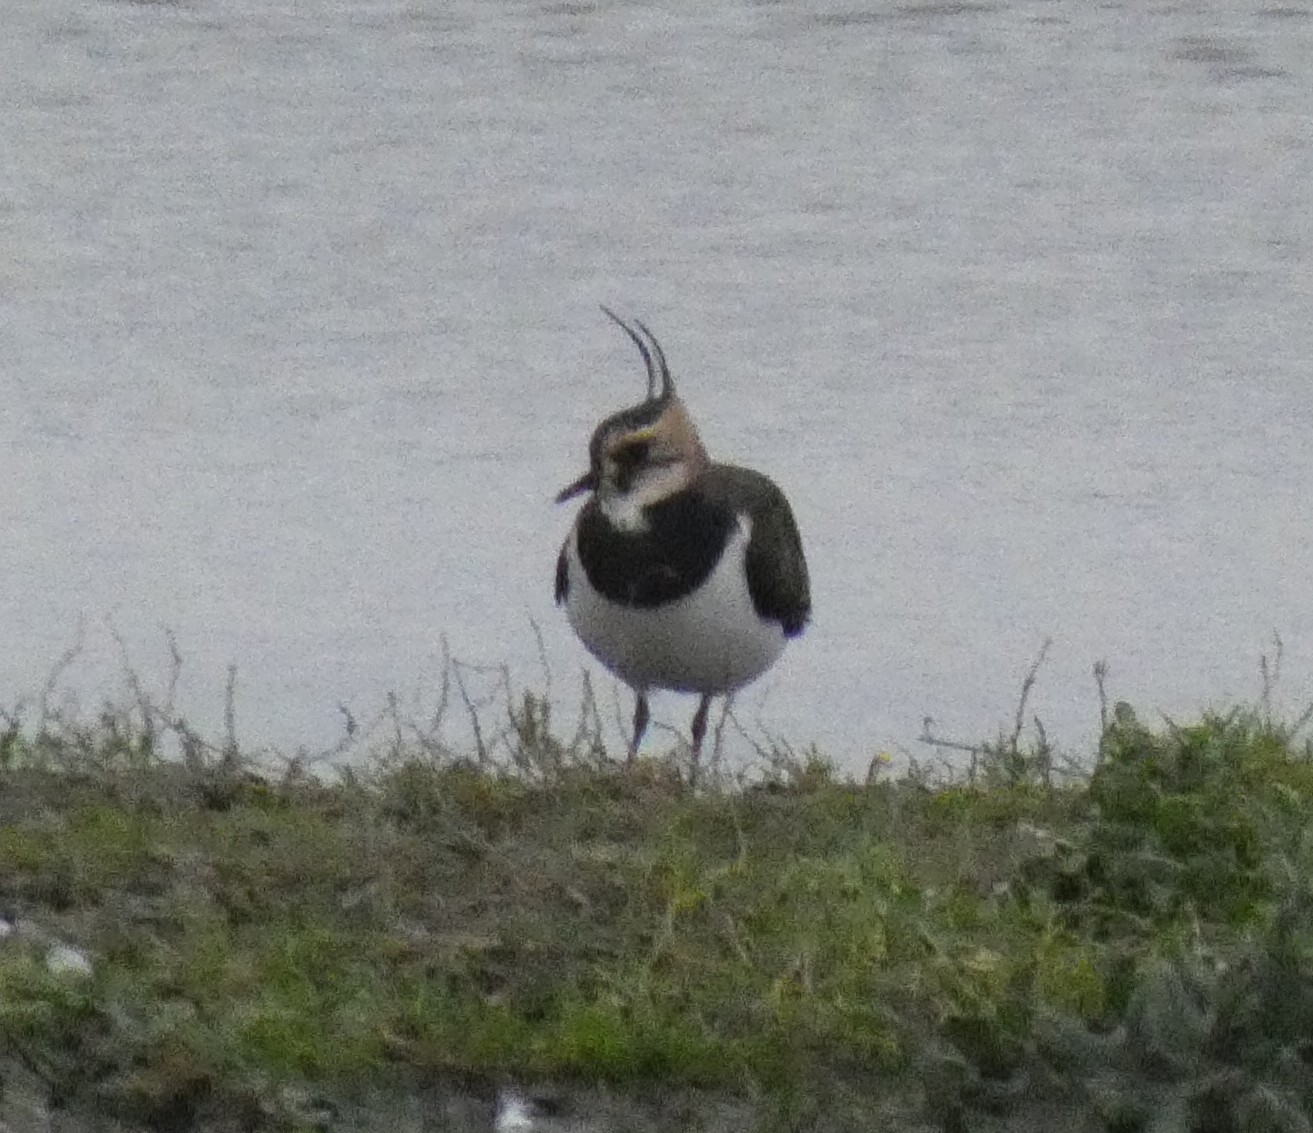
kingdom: Animalia
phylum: Chordata
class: Aves
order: Charadriiformes
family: Charadriidae
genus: Vanellus
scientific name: Vanellus vanellus
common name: Northern lapwing
